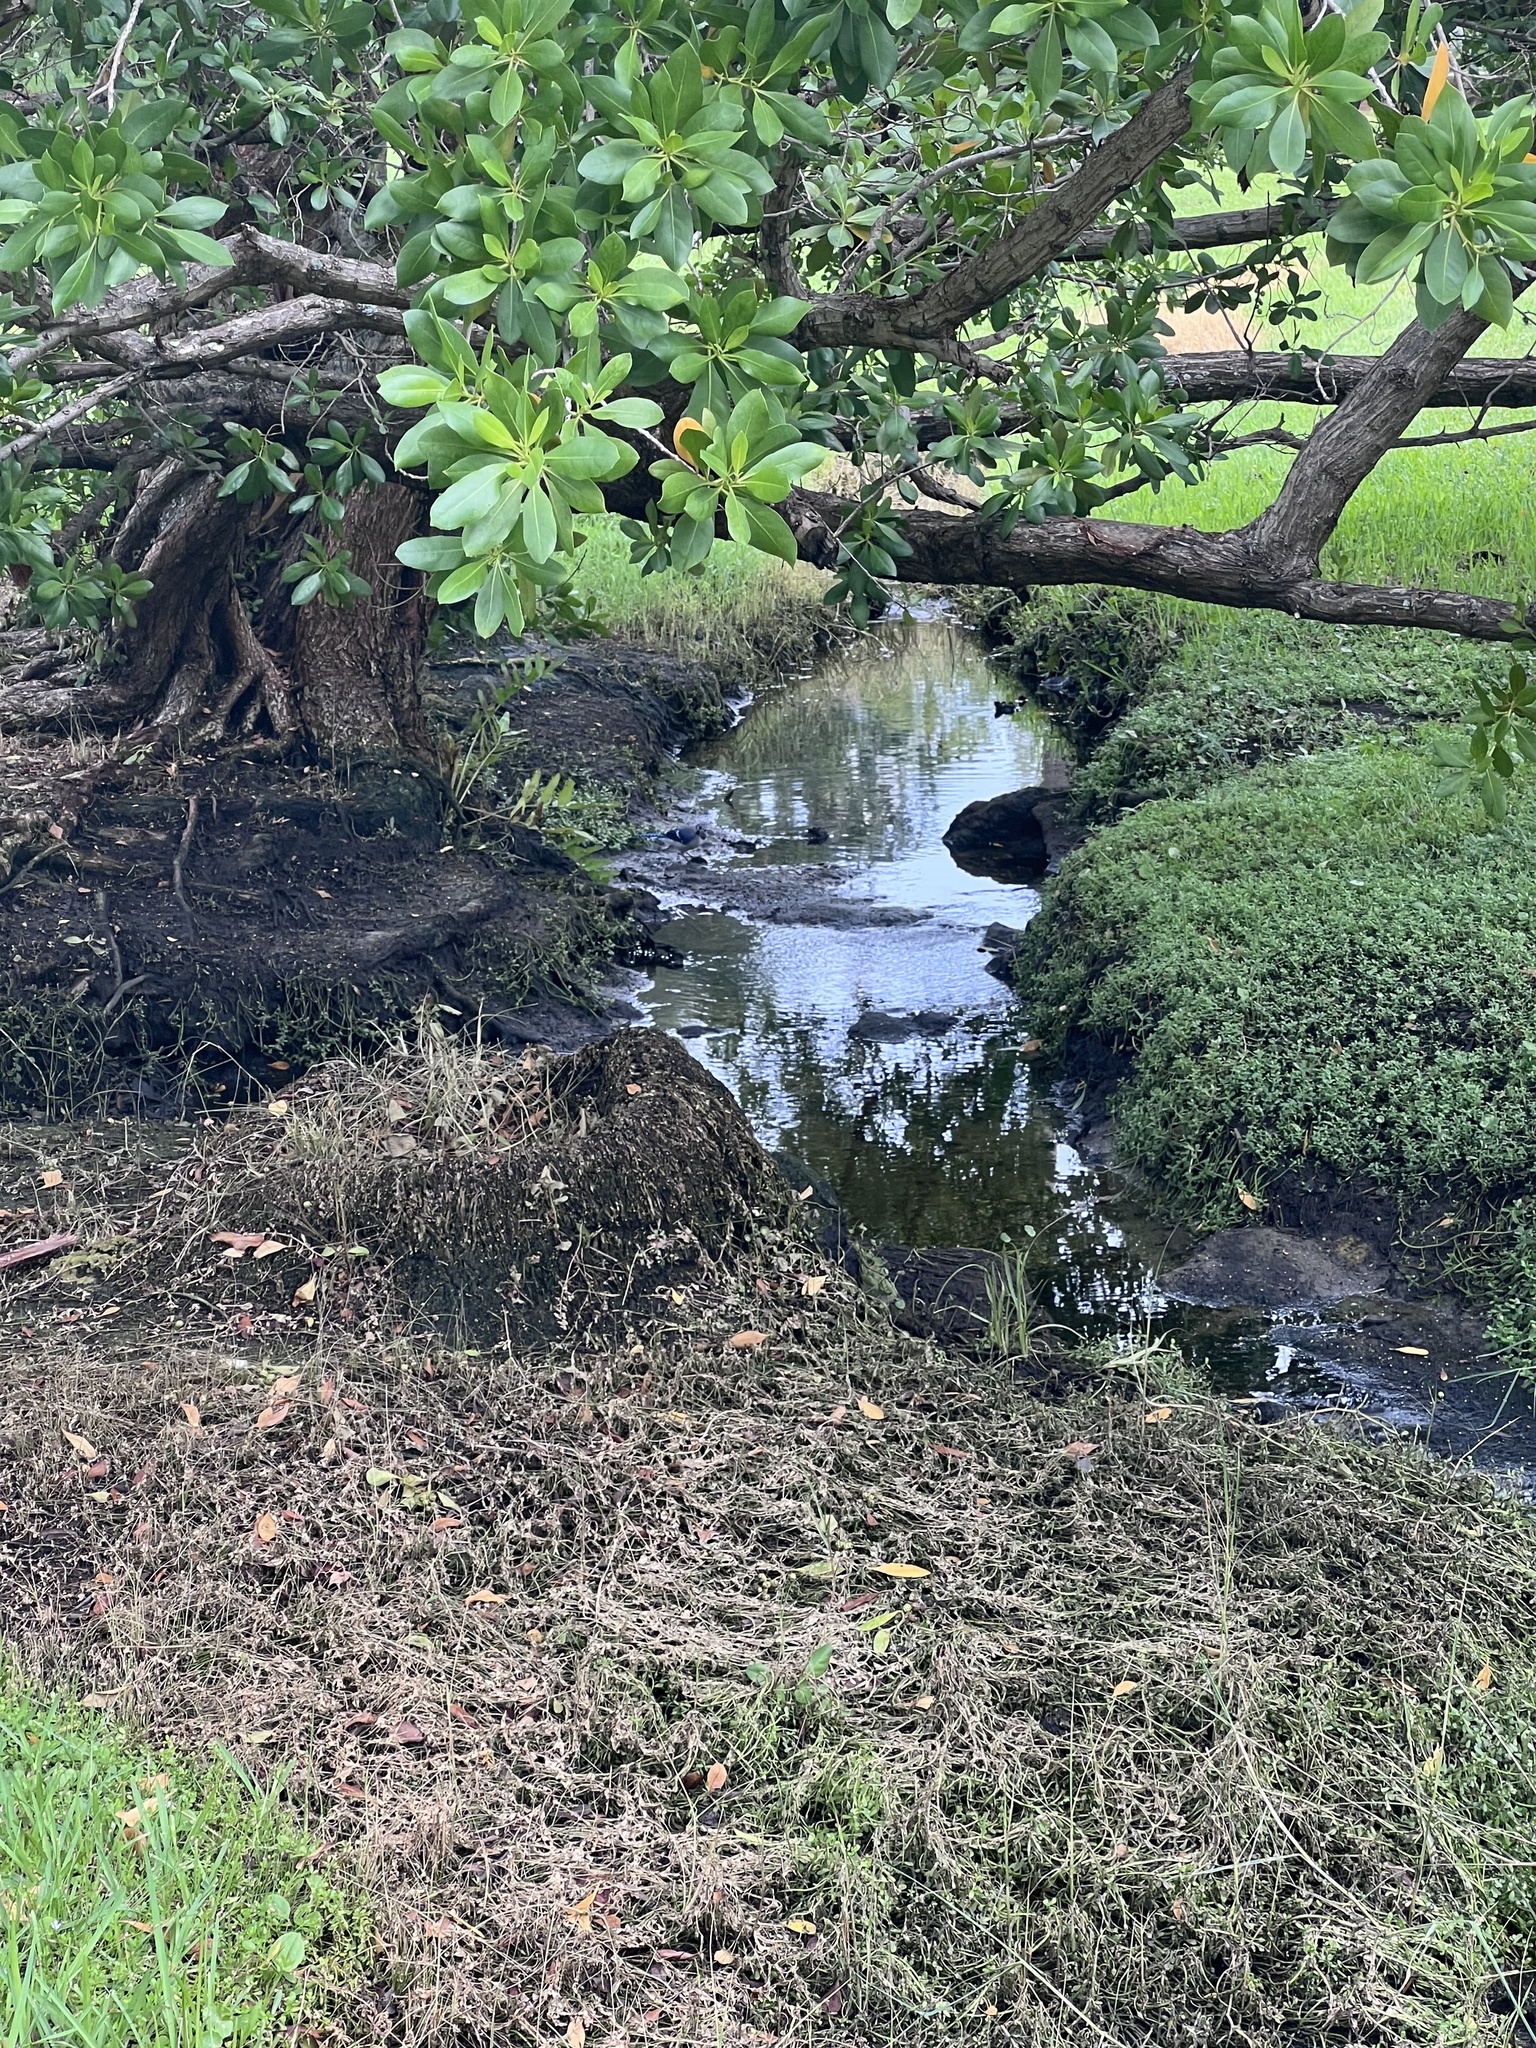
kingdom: Animalia
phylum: Chordata
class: Aves
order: Passeriformes
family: Corvidae
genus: Cyanocitta
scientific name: Cyanocitta cristata
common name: Blue jay
